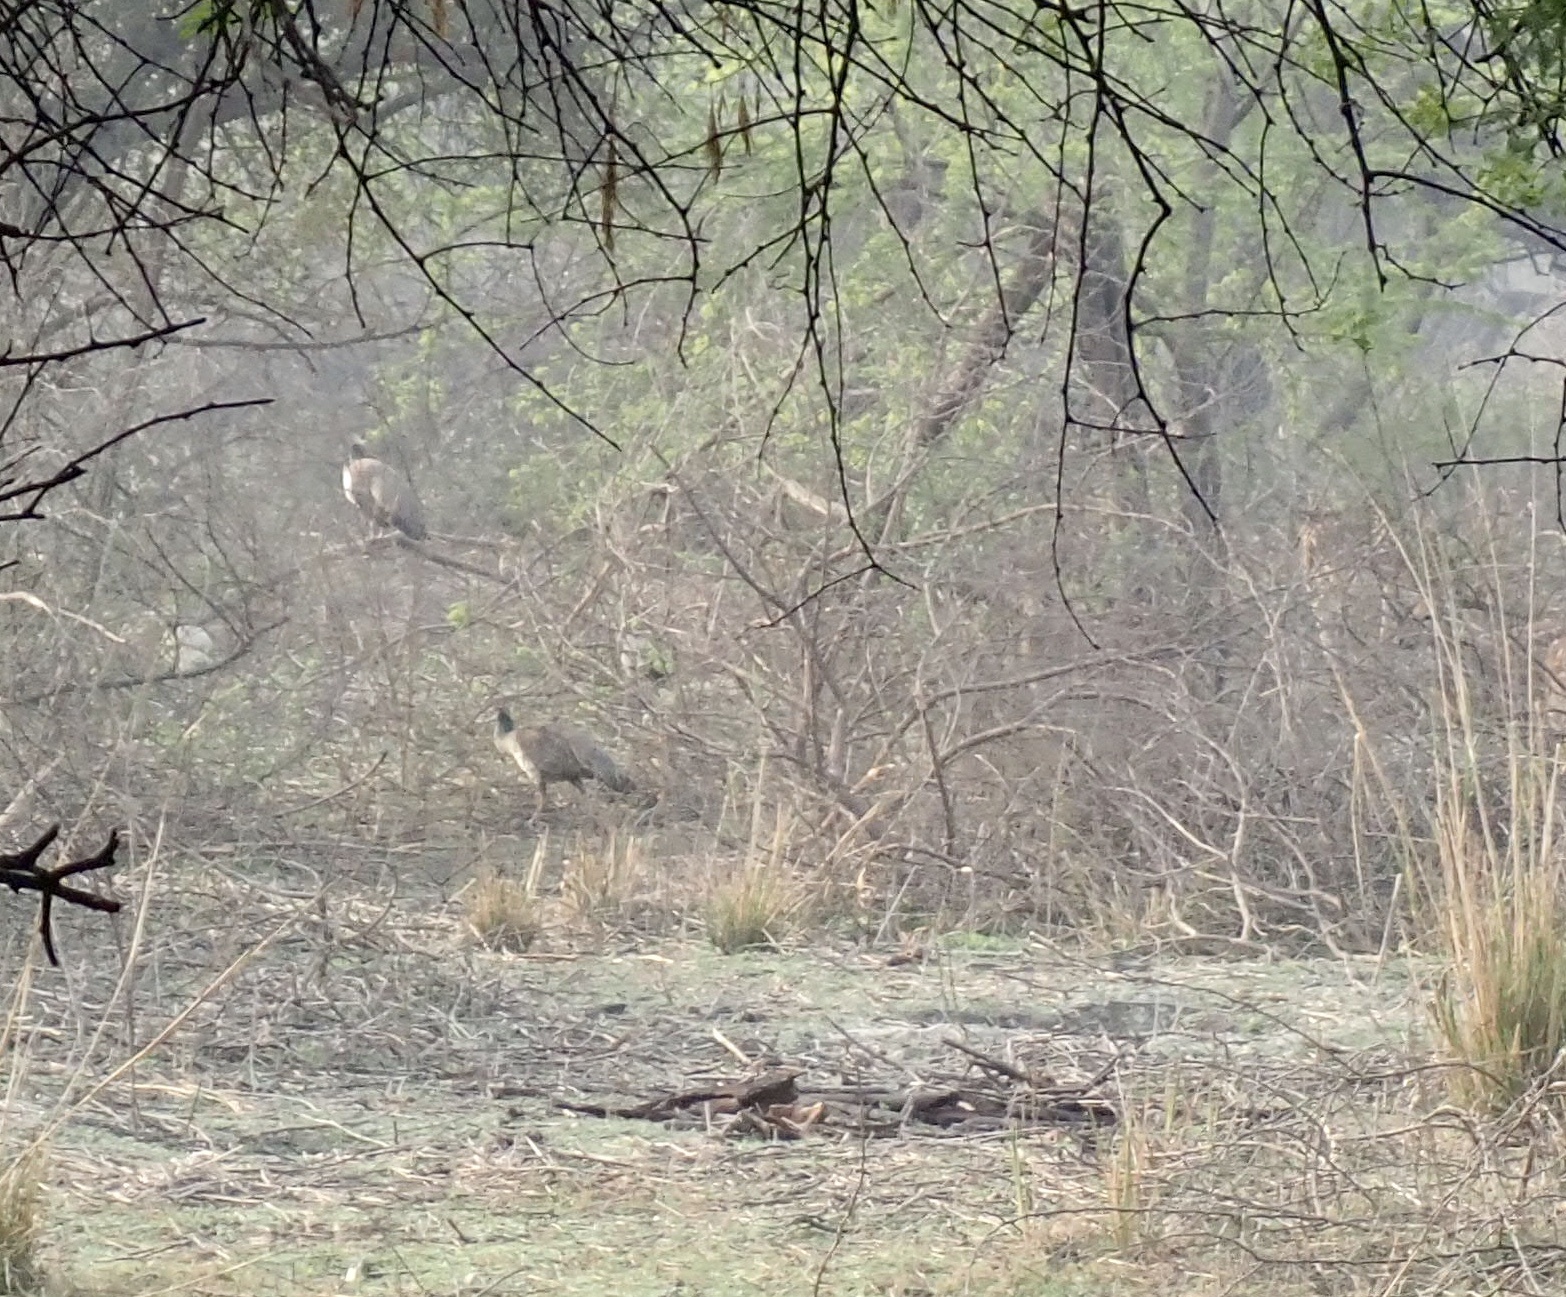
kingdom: Animalia
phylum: Chordata
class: Aves
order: Galliformes
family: Phasianidae
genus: Pavo
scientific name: Pavo cristatus
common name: Indian peafowl
